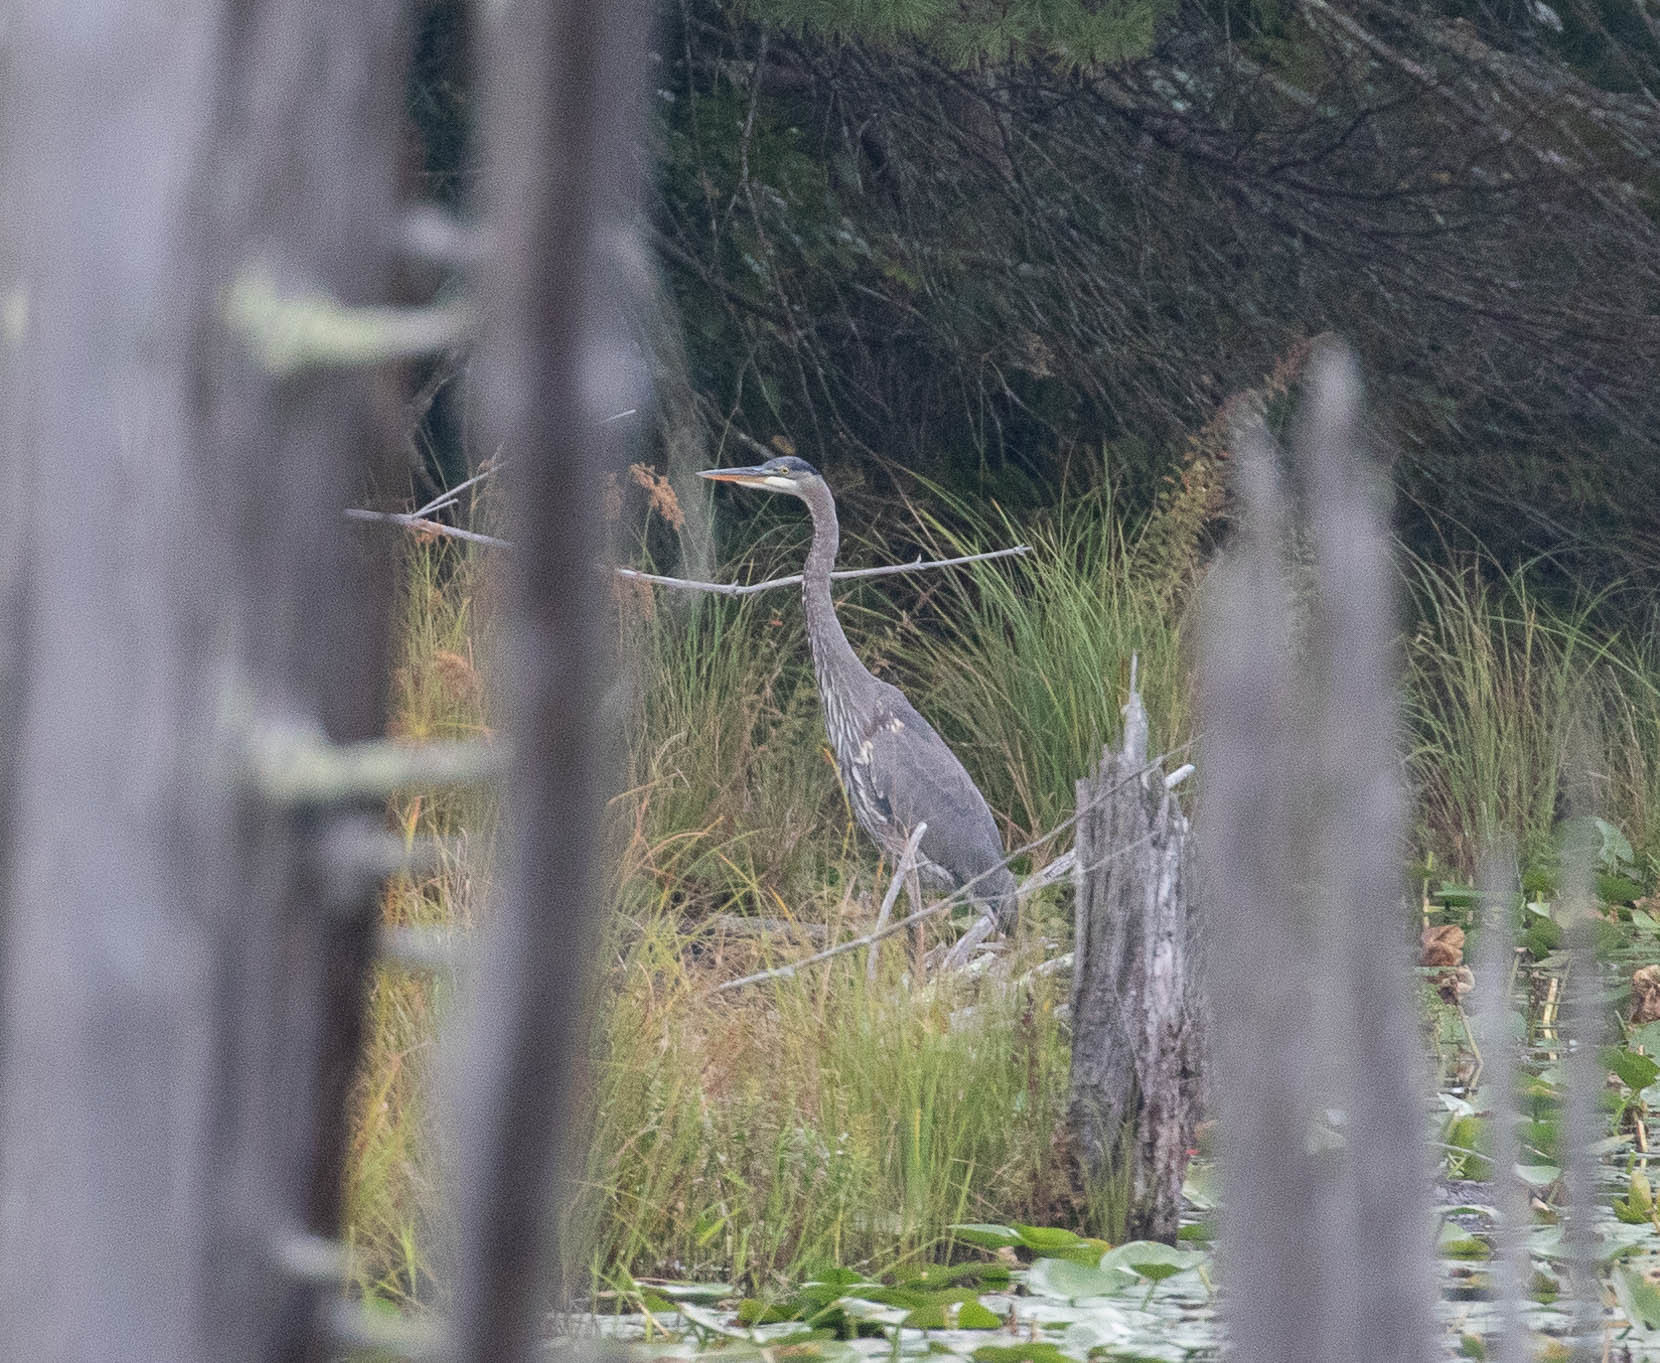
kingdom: Animalia
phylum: Chordata
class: Aves
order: Pelecaniformes
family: Ardeidae
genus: Ardea
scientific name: Ardea herodias
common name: Great blue heron
